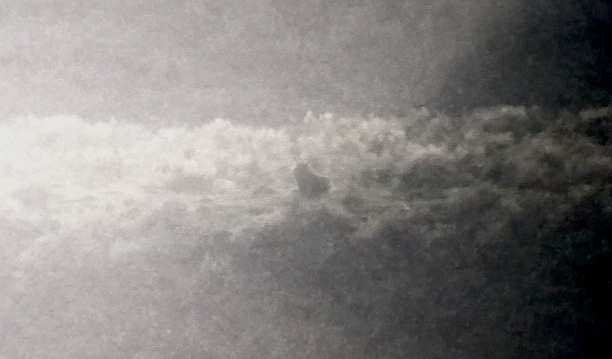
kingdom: Animalia
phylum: Chordata
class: Mammalia
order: Carnivora
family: Canidae
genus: Canis
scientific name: Canis lupus
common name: Gray wolf
